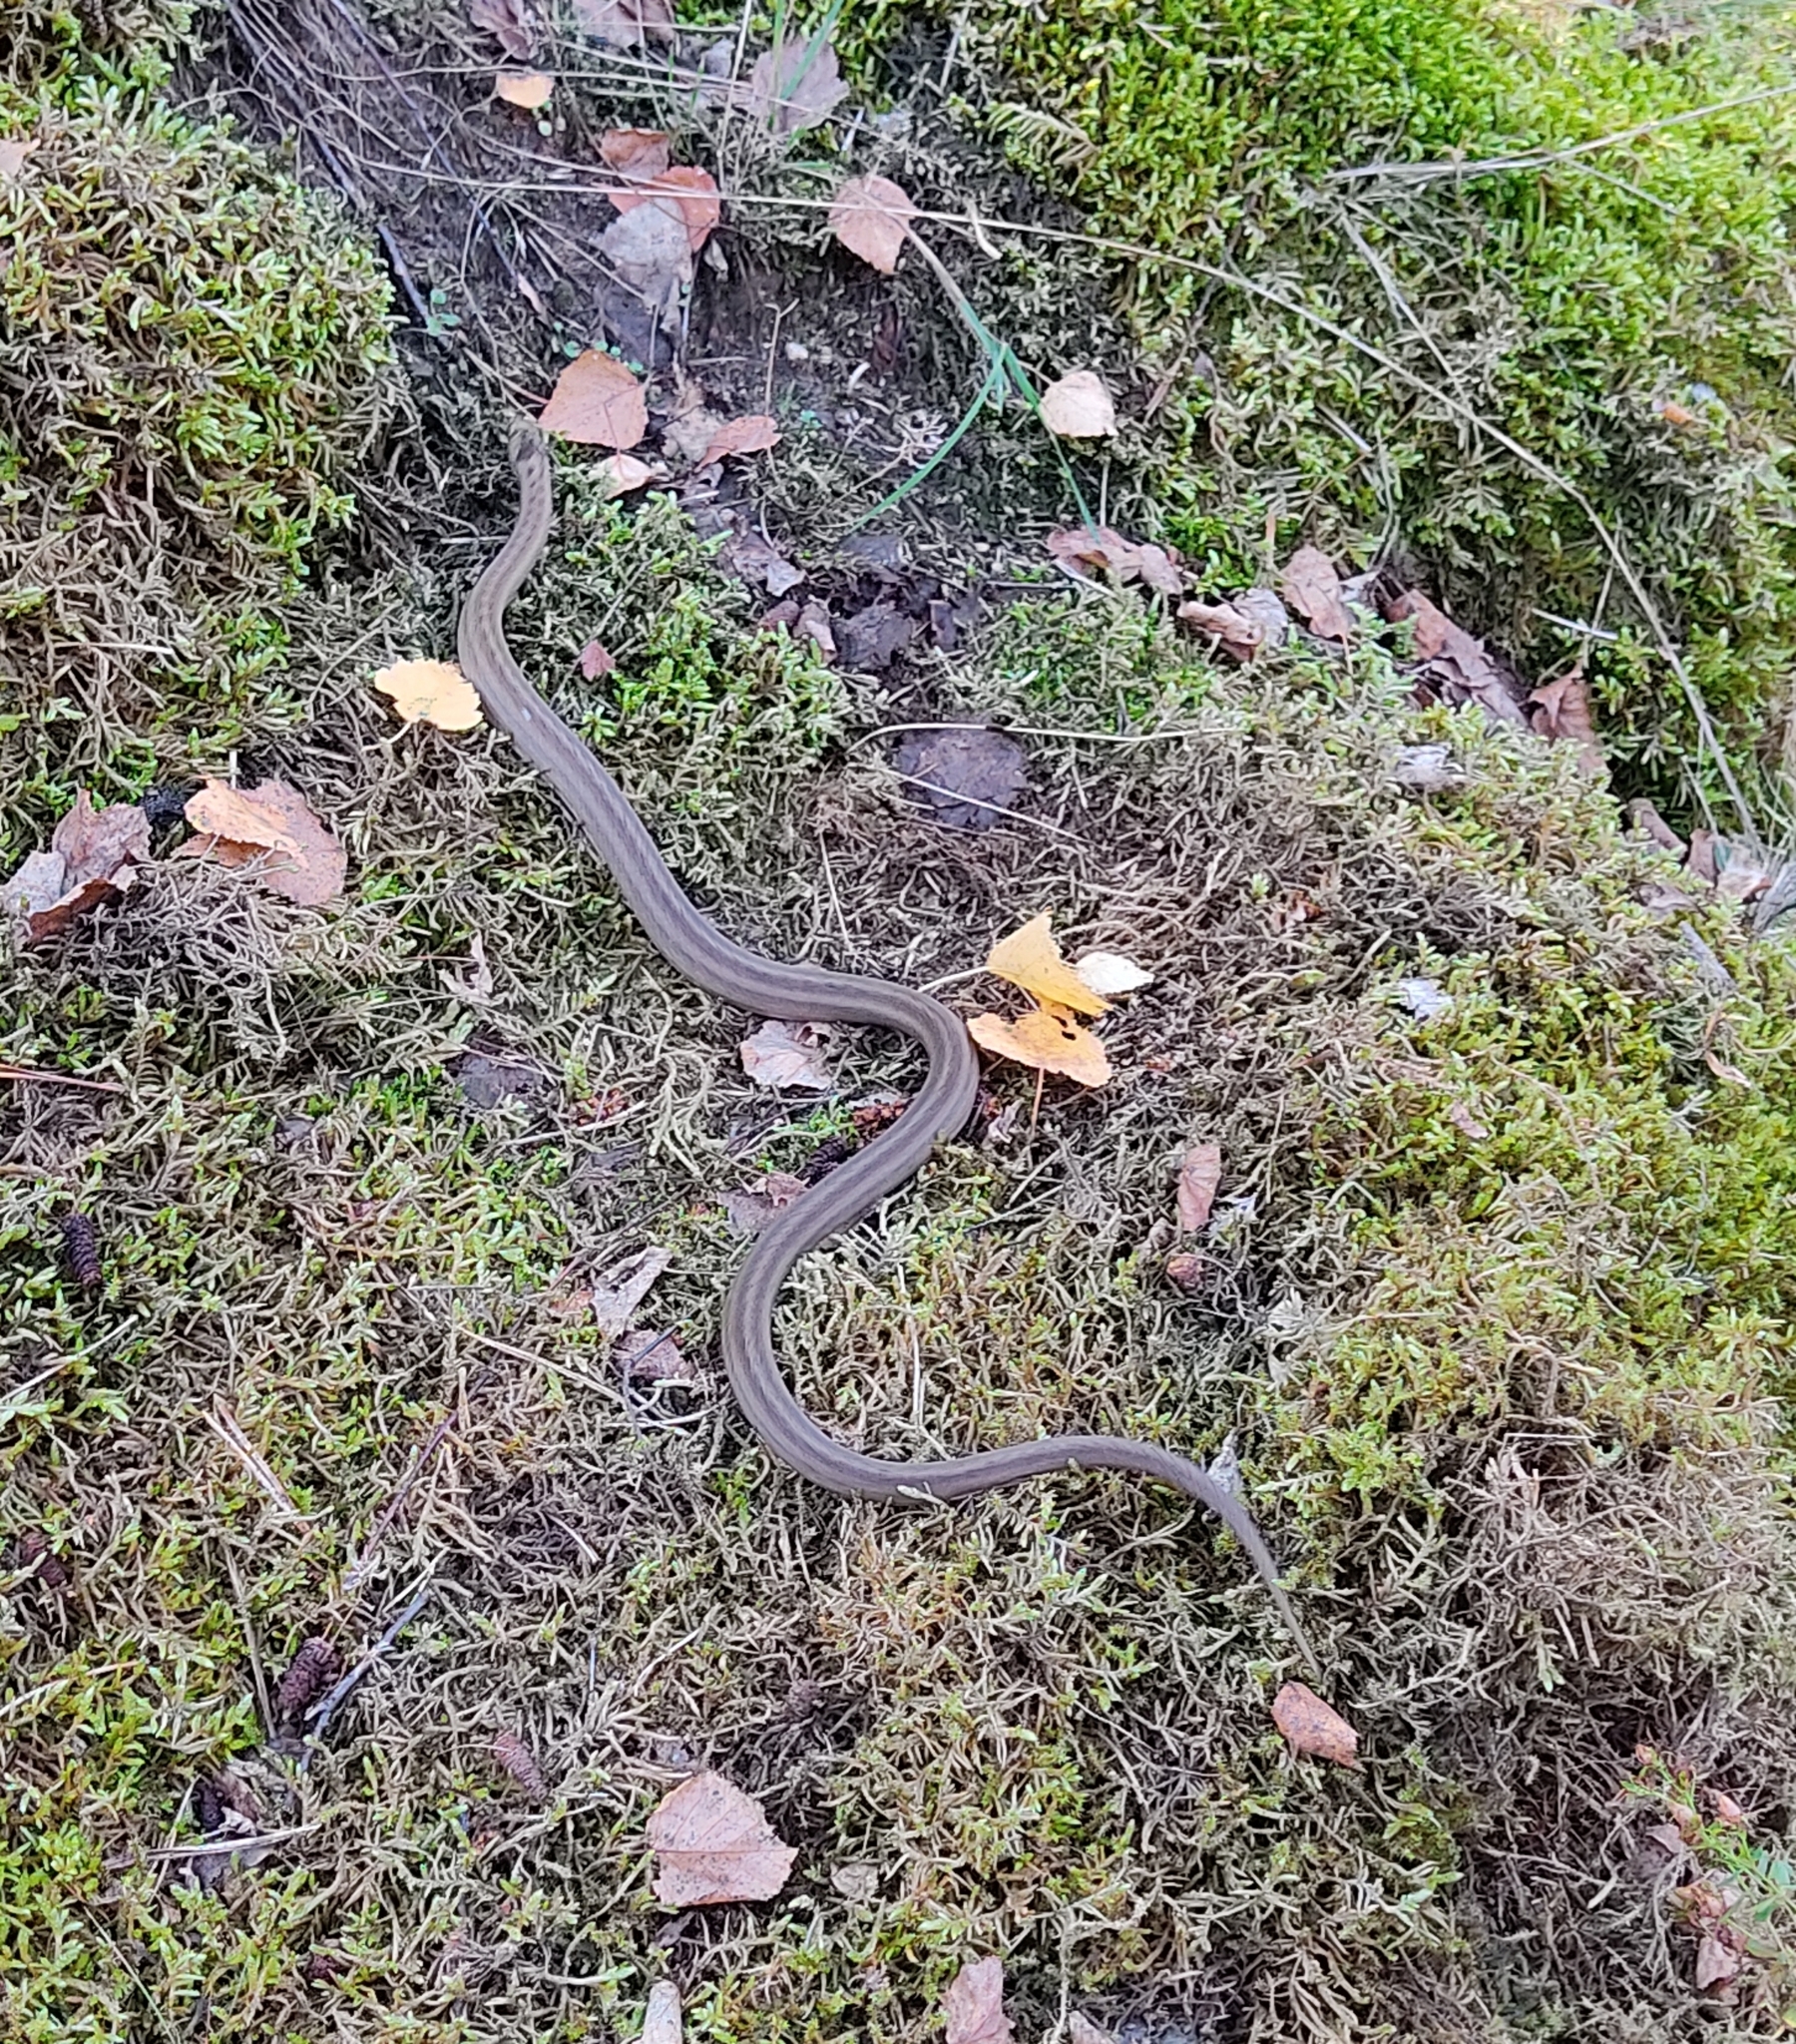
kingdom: Animalia
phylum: Chordata
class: Squamata
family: Colubridae
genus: Coronella
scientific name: Coronella austriaca
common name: Smooth snake
